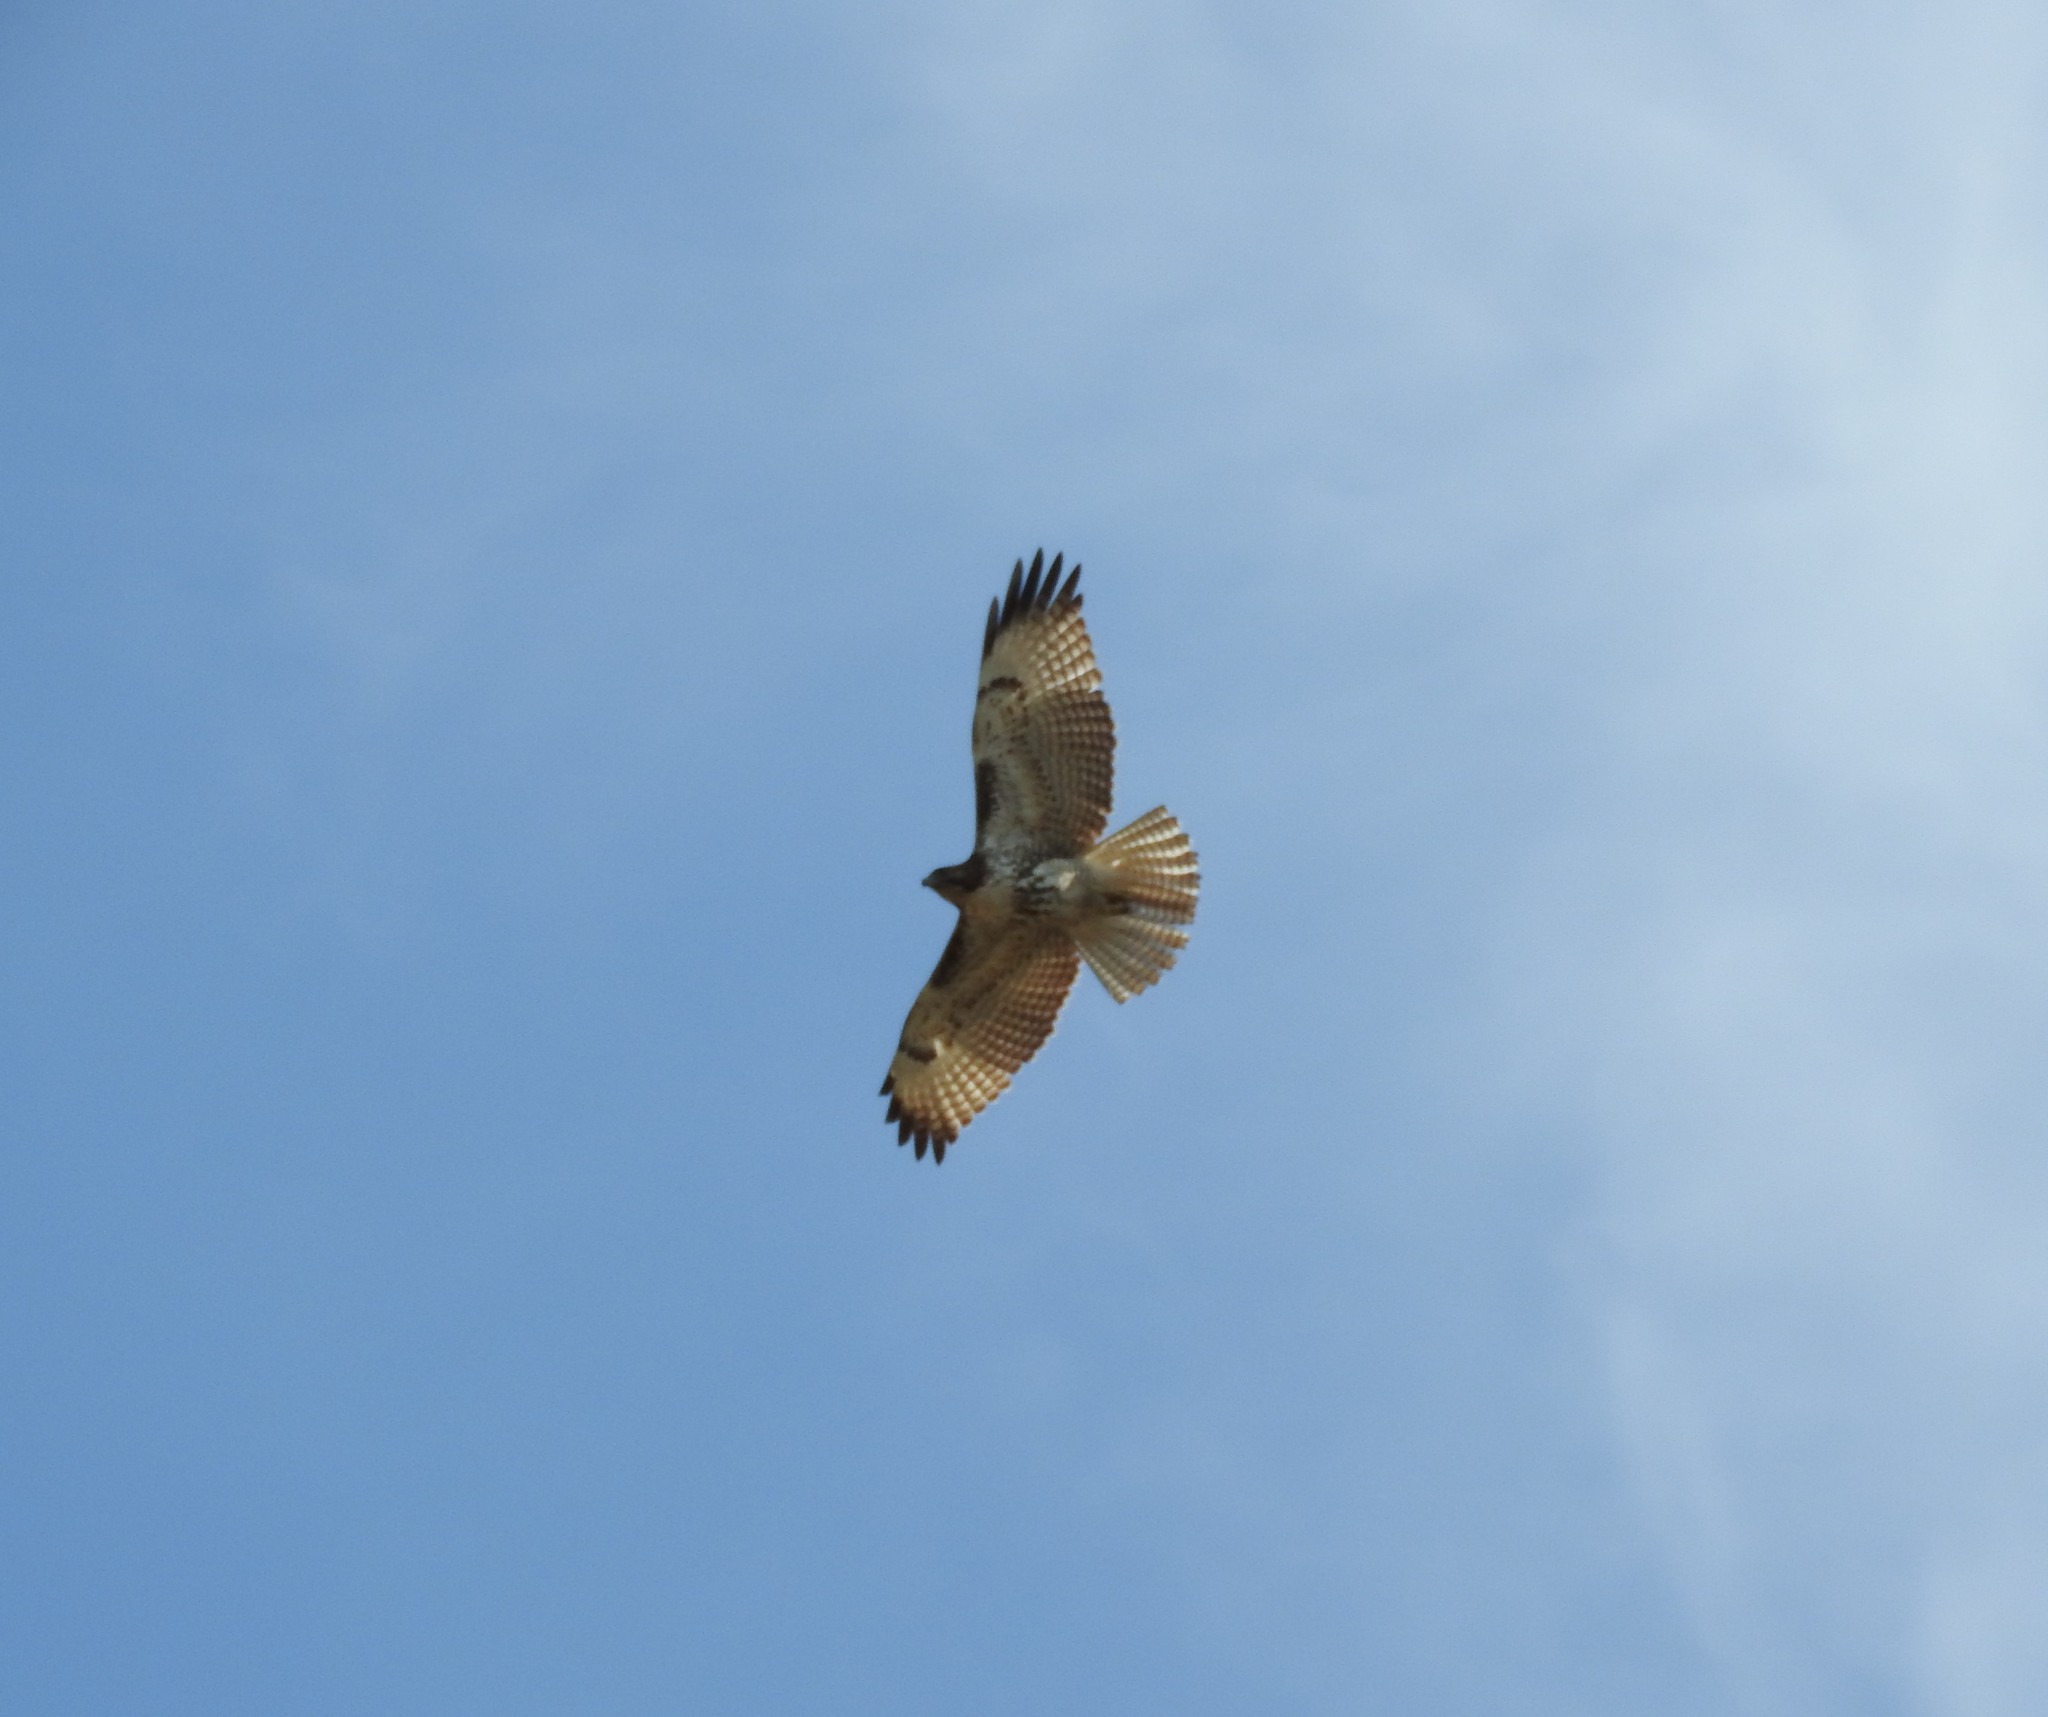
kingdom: Animalia
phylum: Chordata
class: Aves
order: Accipitriformes
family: Accipitridae
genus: Buteo
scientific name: Buteo jamaicensis
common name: Red-tailed hawk
